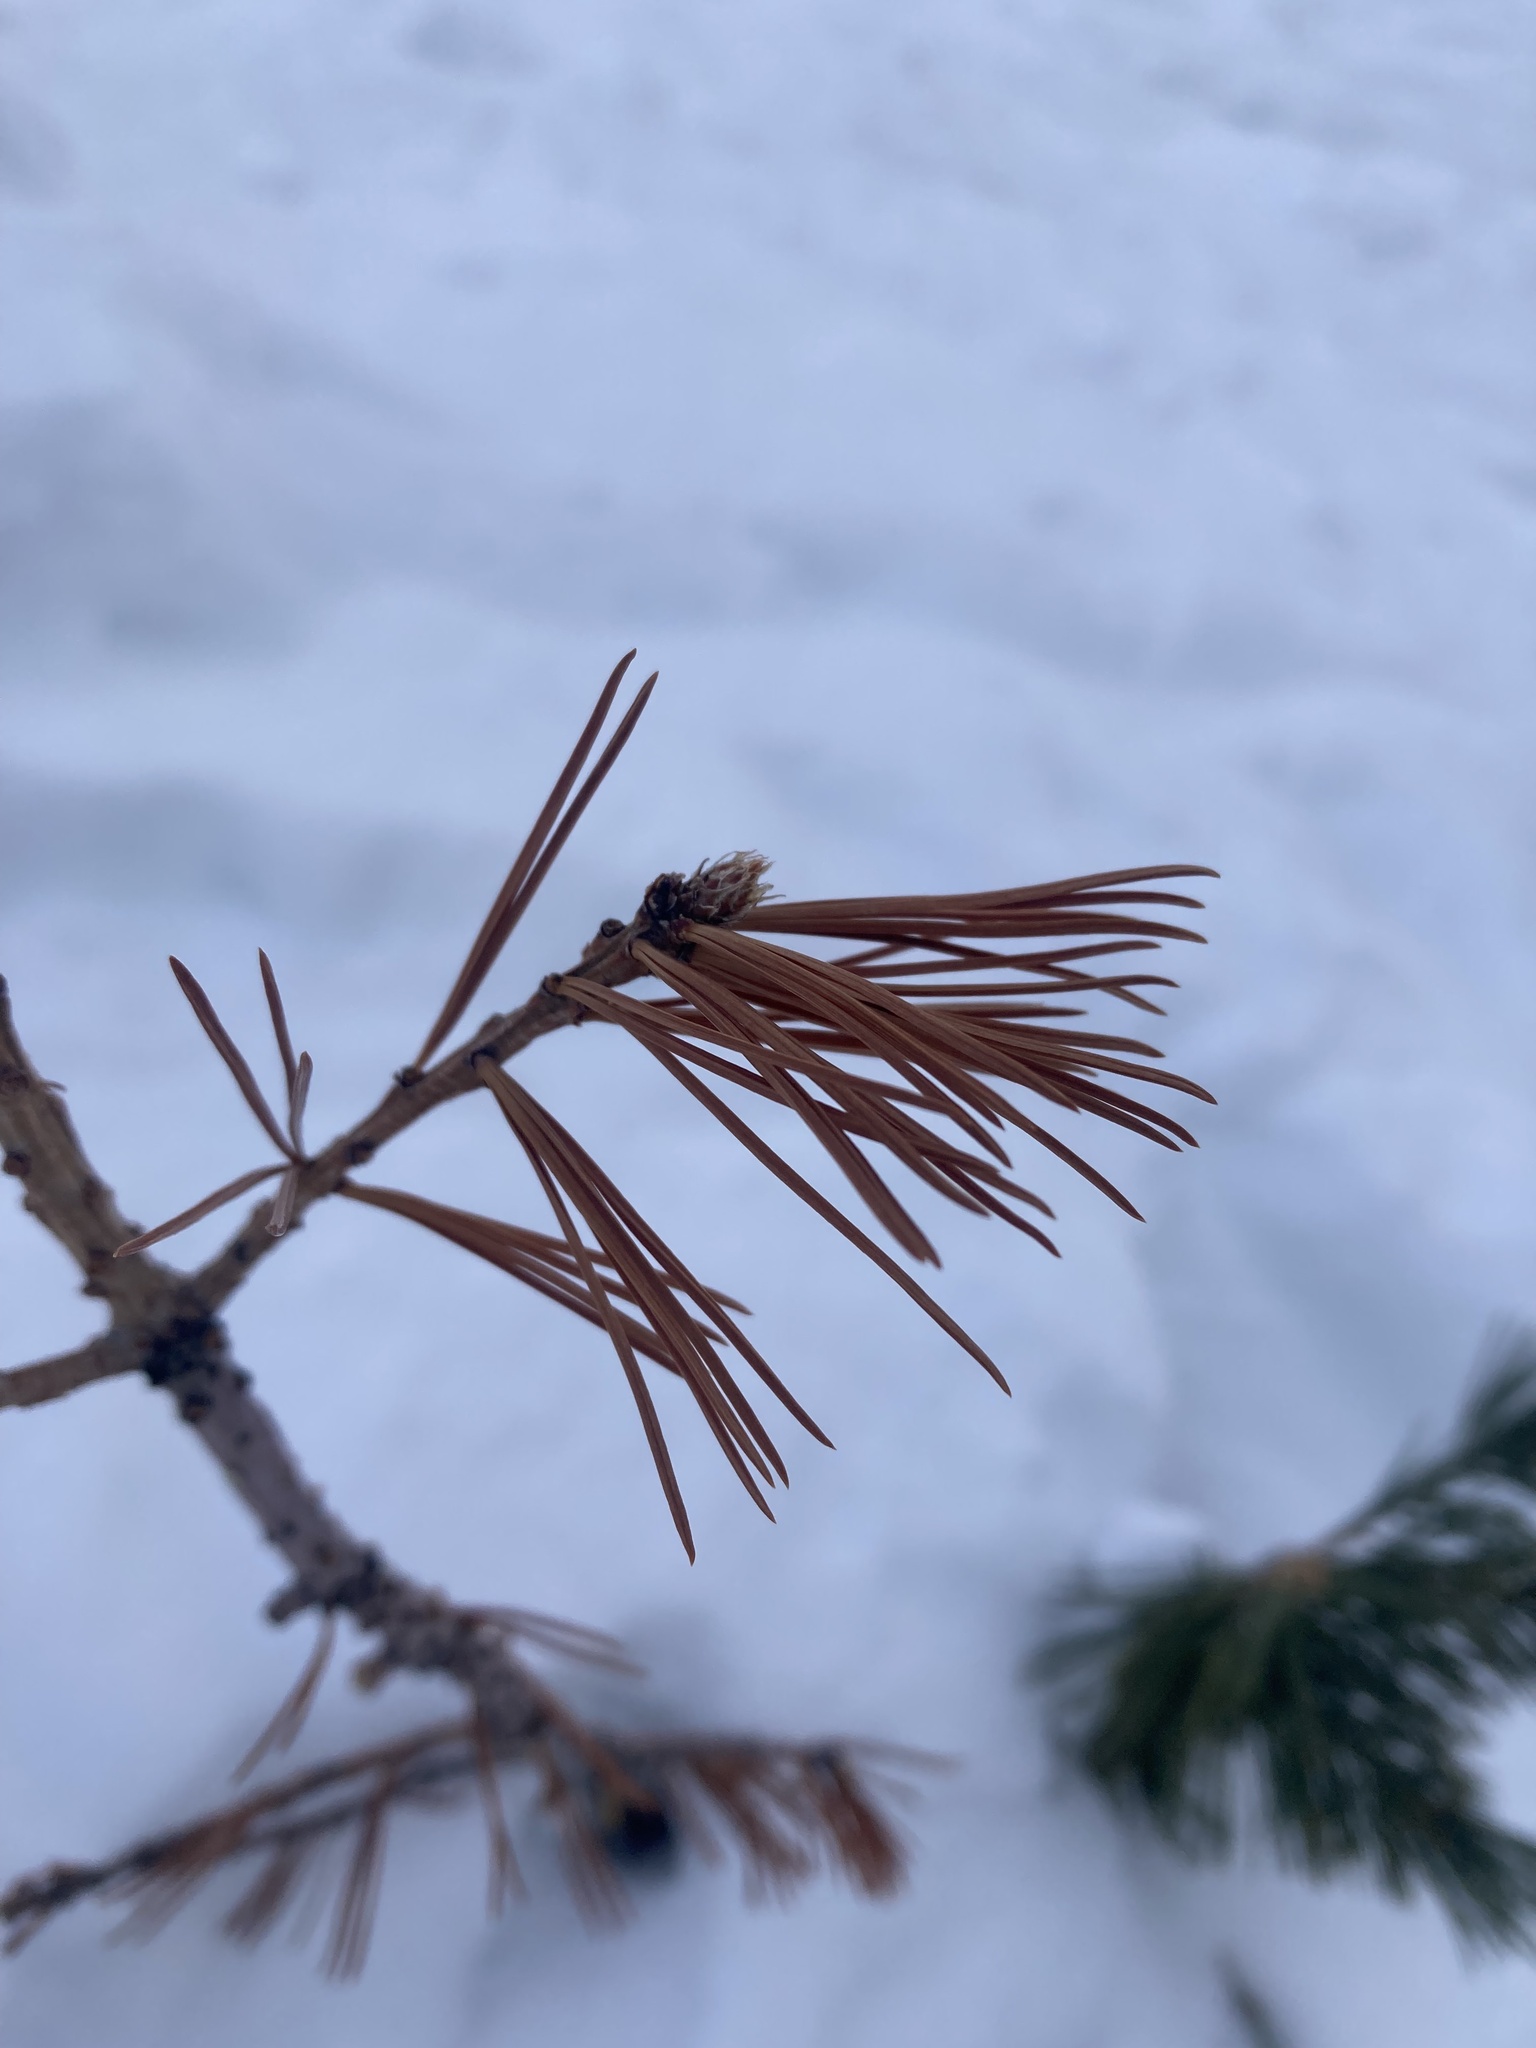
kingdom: Plantae
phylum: Tracheophyta
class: Pinopsida
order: Pinales
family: Pinaceae
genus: Pinus
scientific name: Pinus albicaulis
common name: Whitebark pine
